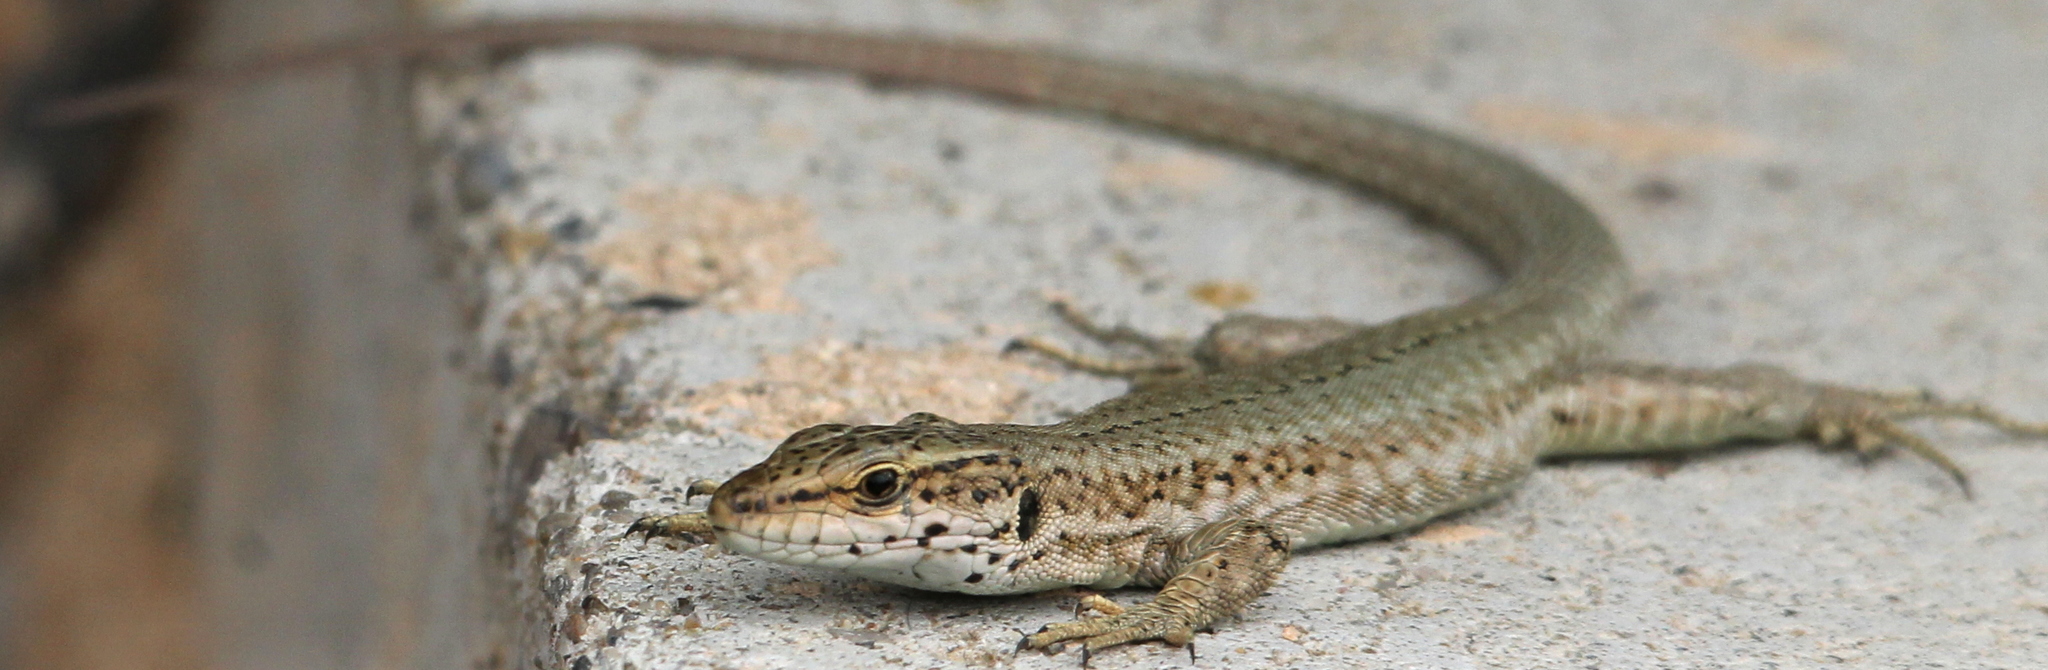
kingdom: Animalia
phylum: Chordata
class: Squamata
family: Lacertidae
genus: Podarcis
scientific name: Podarcis liolepis
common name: Catalonian wall lizard
